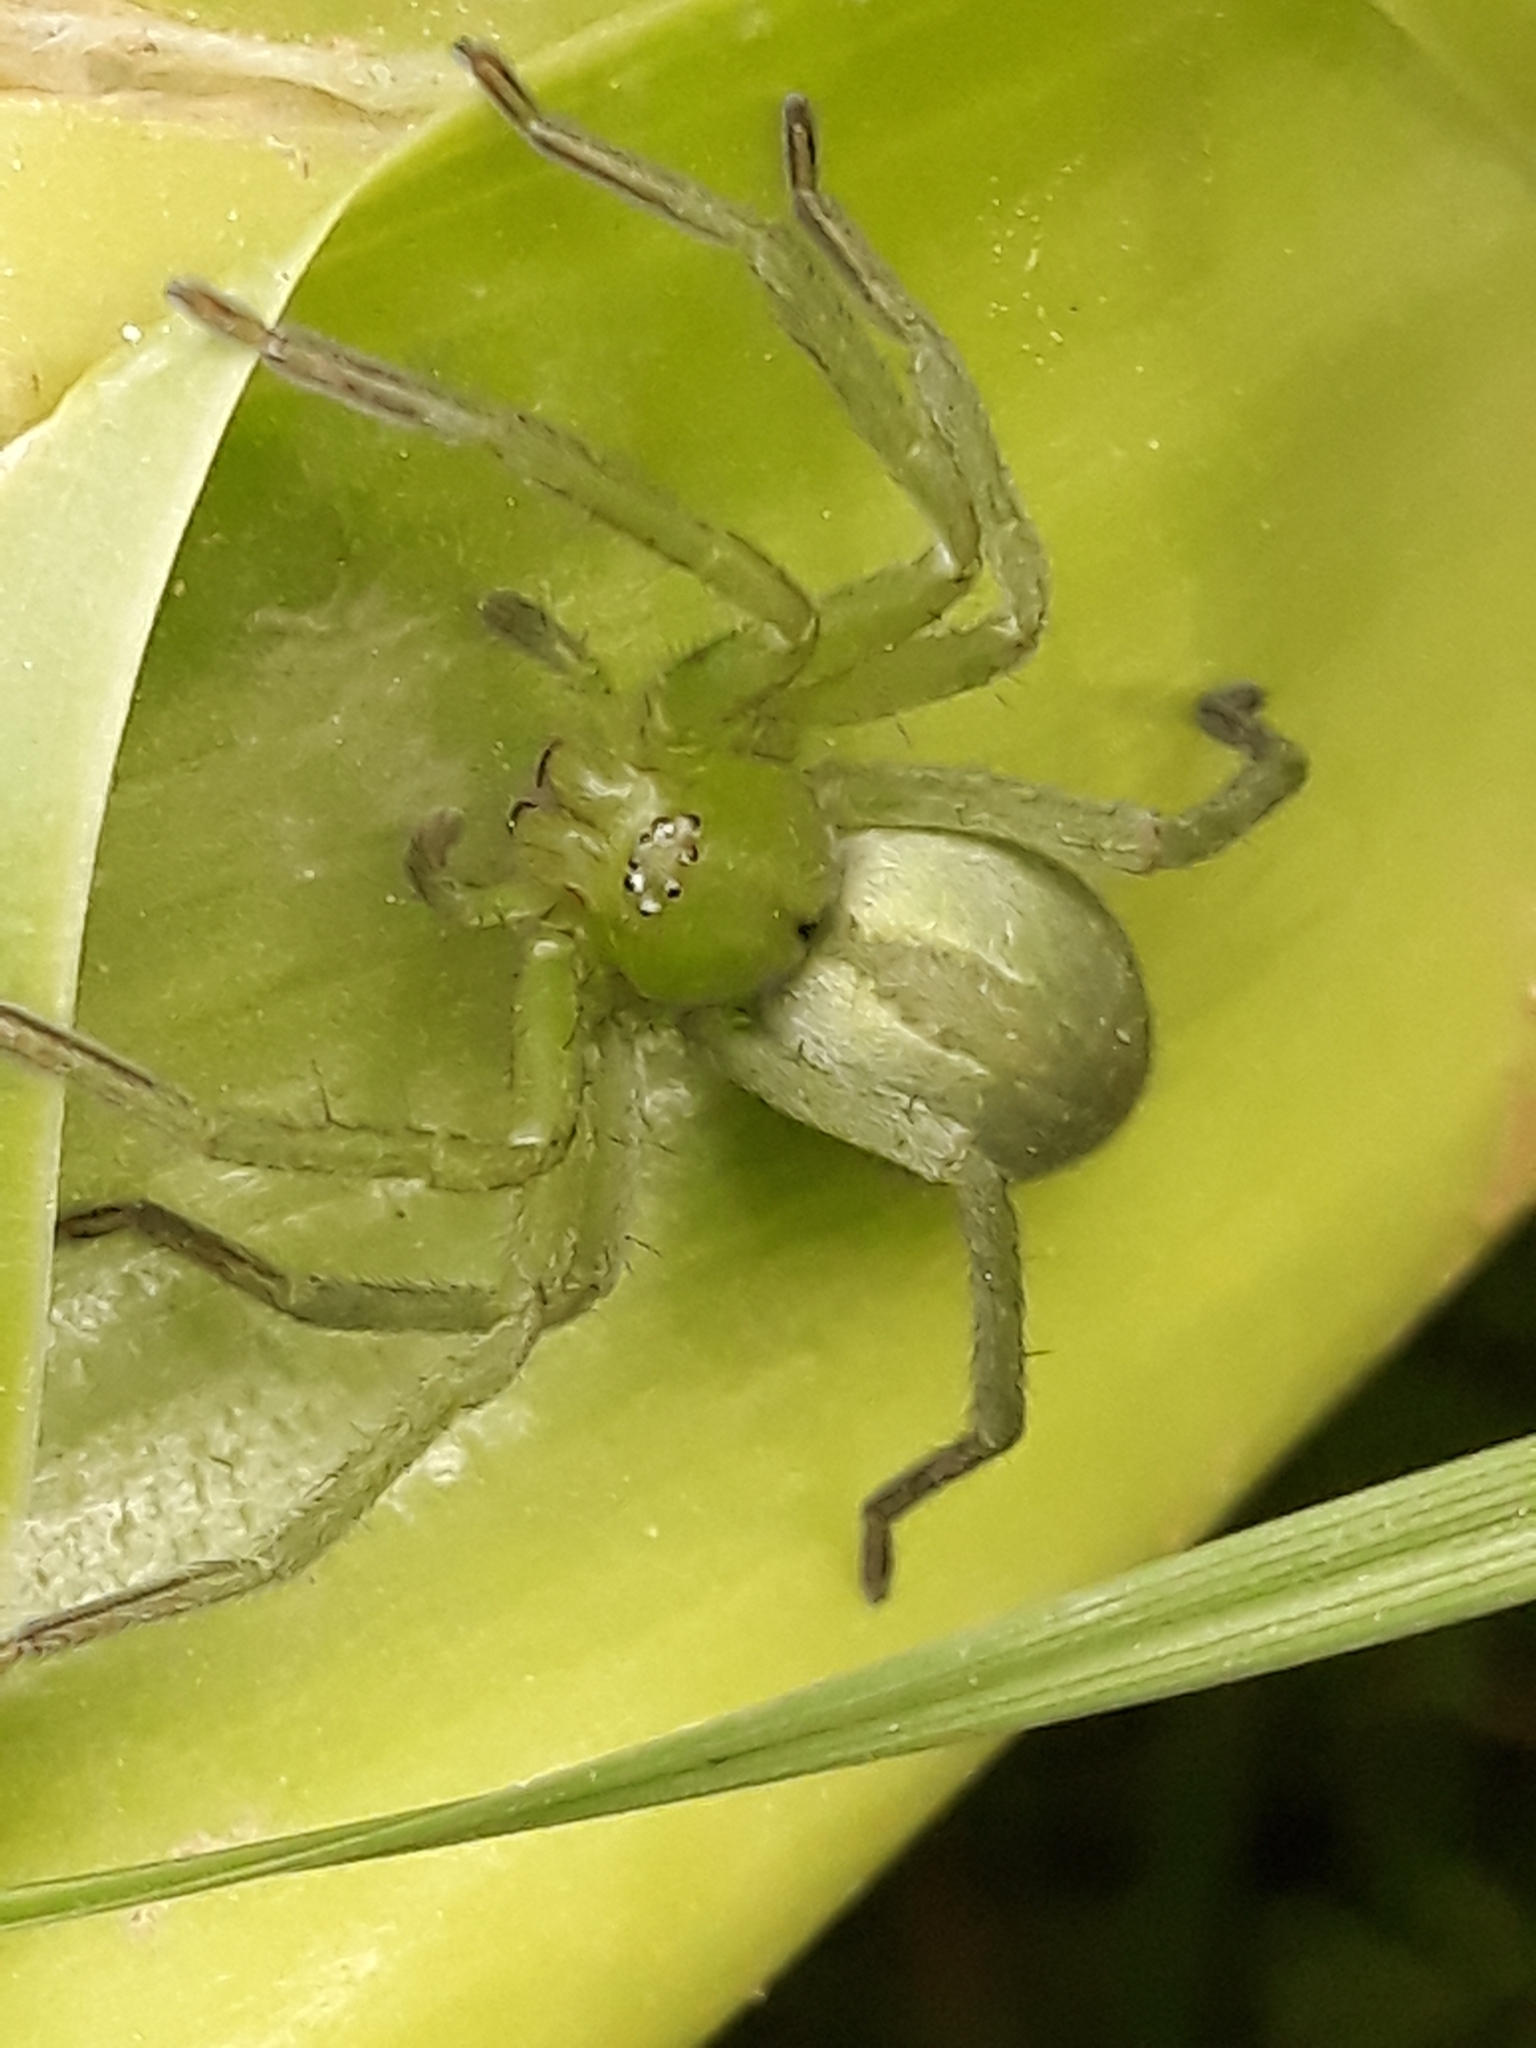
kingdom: Animalia
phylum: Arthropoda
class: Arachnida
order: Araneae
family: Sparassidae
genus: Micrommata
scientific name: Micrommata ligurina
